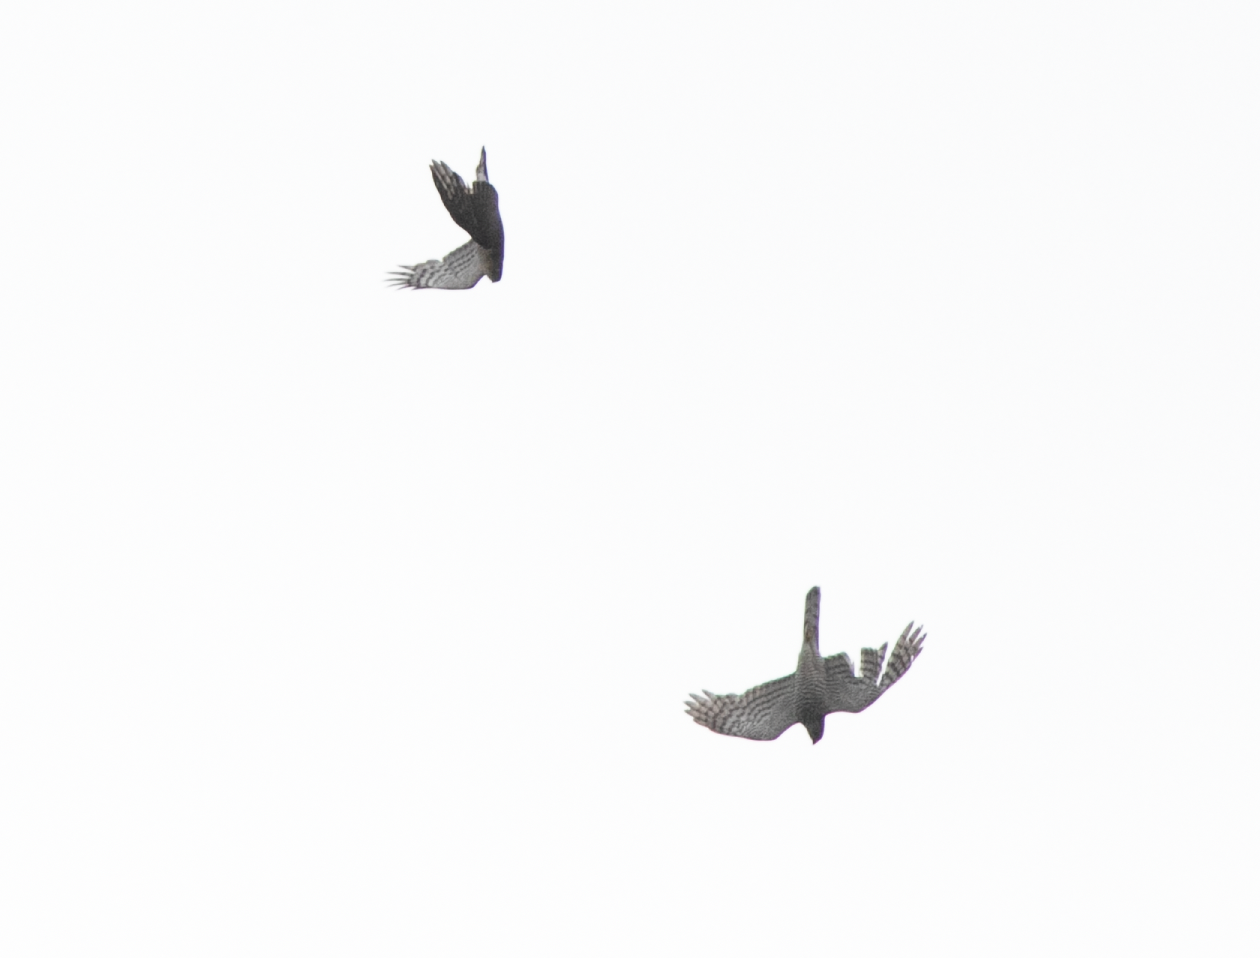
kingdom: Animalia
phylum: Chordata
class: Aves
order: Accipitriformes
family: Accipitridae
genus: Accipiter
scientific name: Accipiter nisus
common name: Eurasian sparrowhawk
